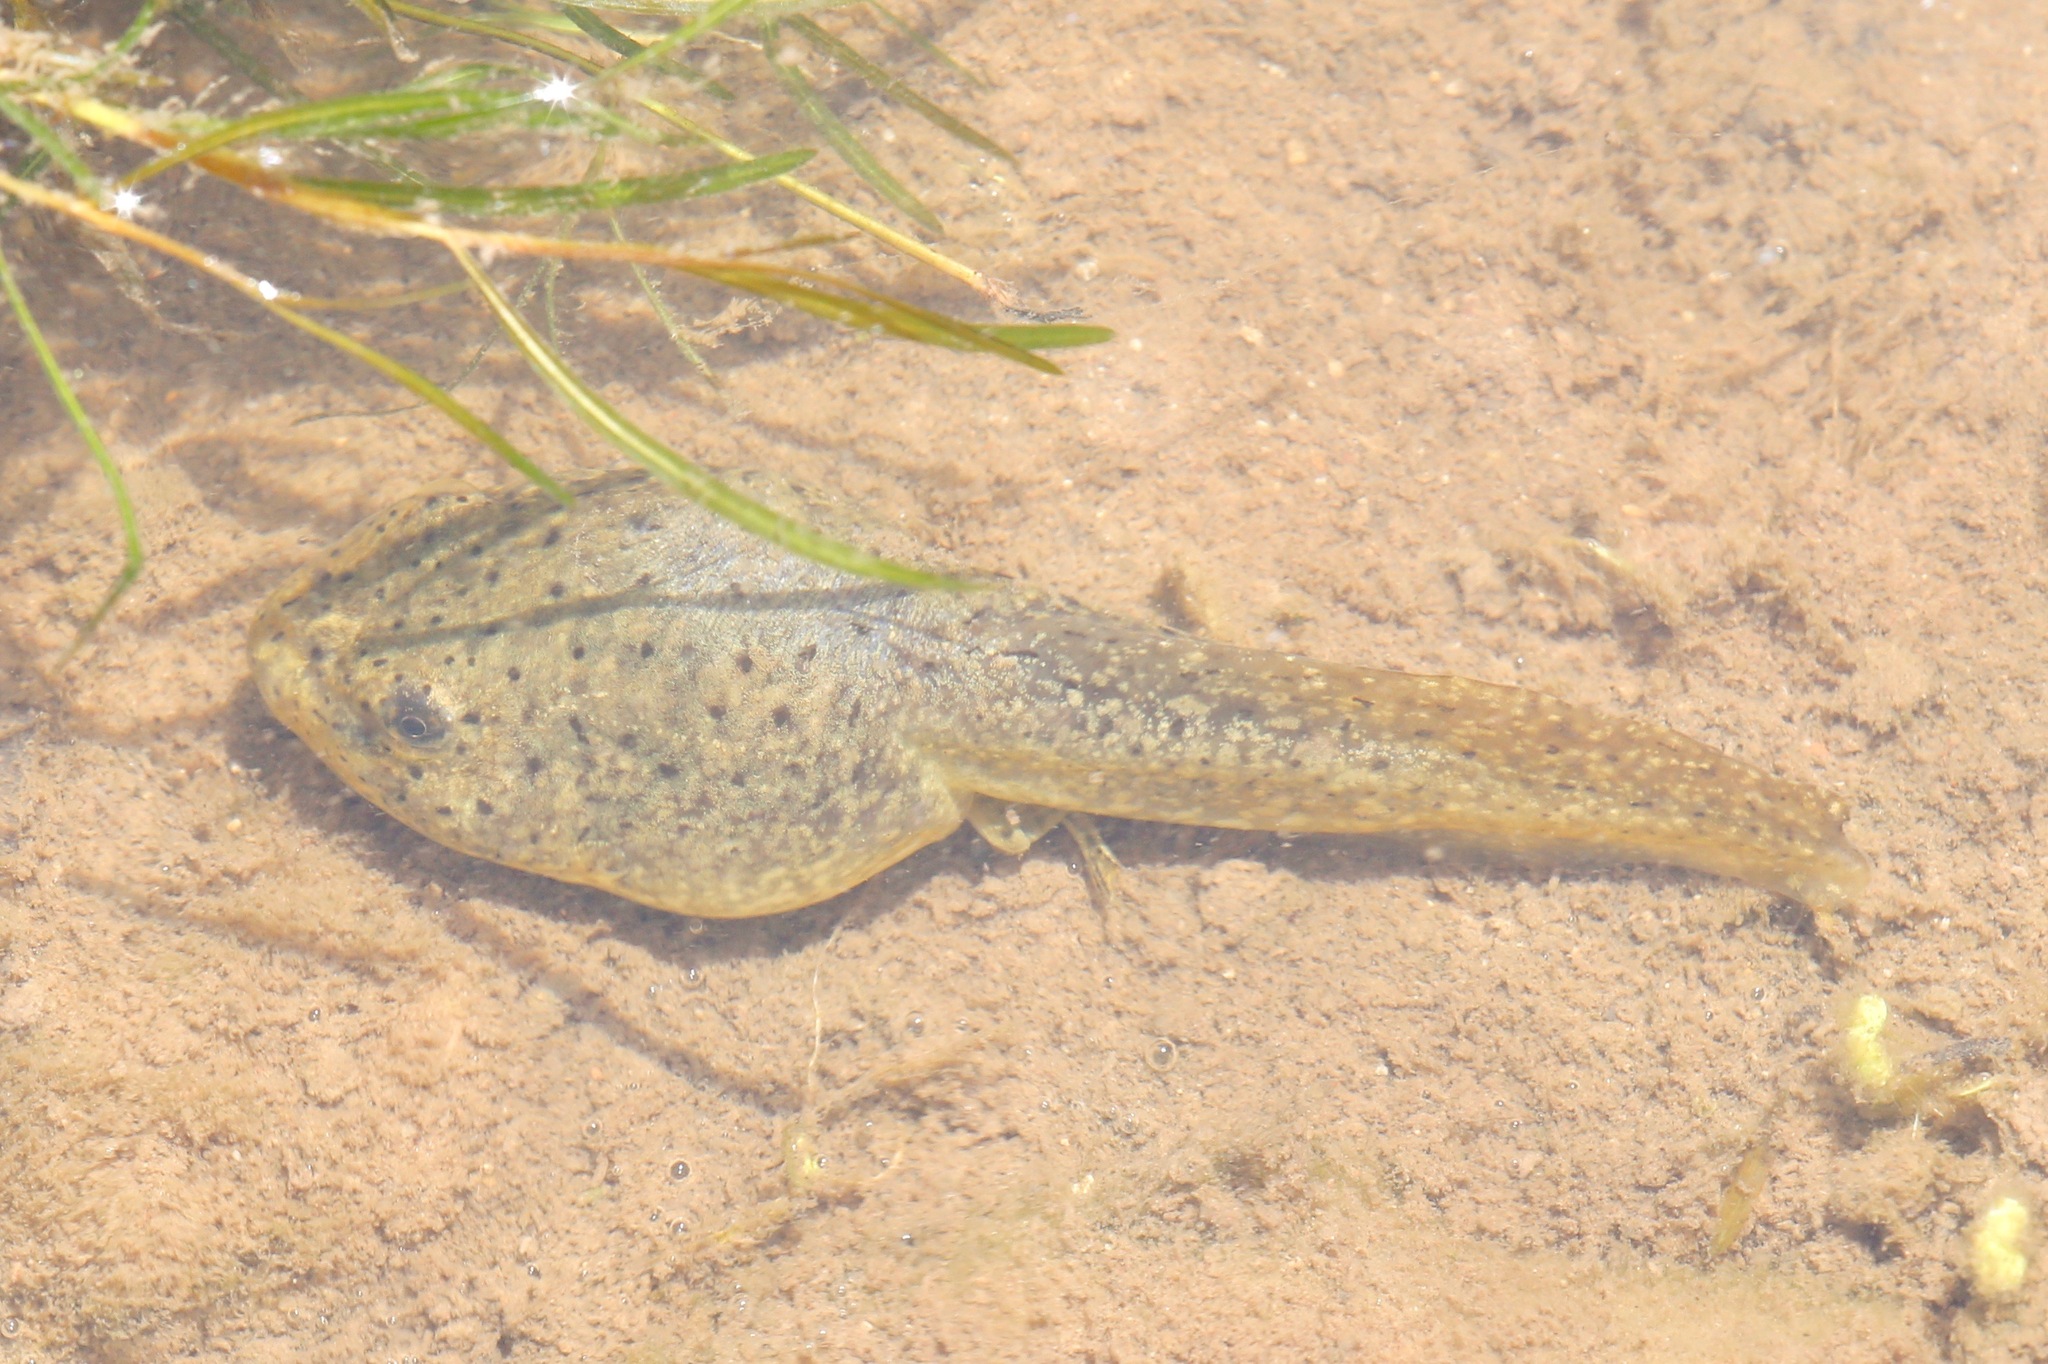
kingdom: Animalia
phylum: Chordata
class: Amphibia
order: Anura
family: Ranidae
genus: Lithobates
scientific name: Lithobates catesbeianus
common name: American bullfrog
